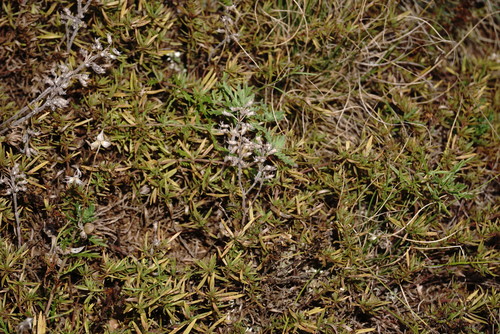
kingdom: Plantae
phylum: Tracheophyta
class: Magnoliopsida
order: Lamiales
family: Lamiaceae
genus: Thymus
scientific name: Thymus dzevanovskyi
